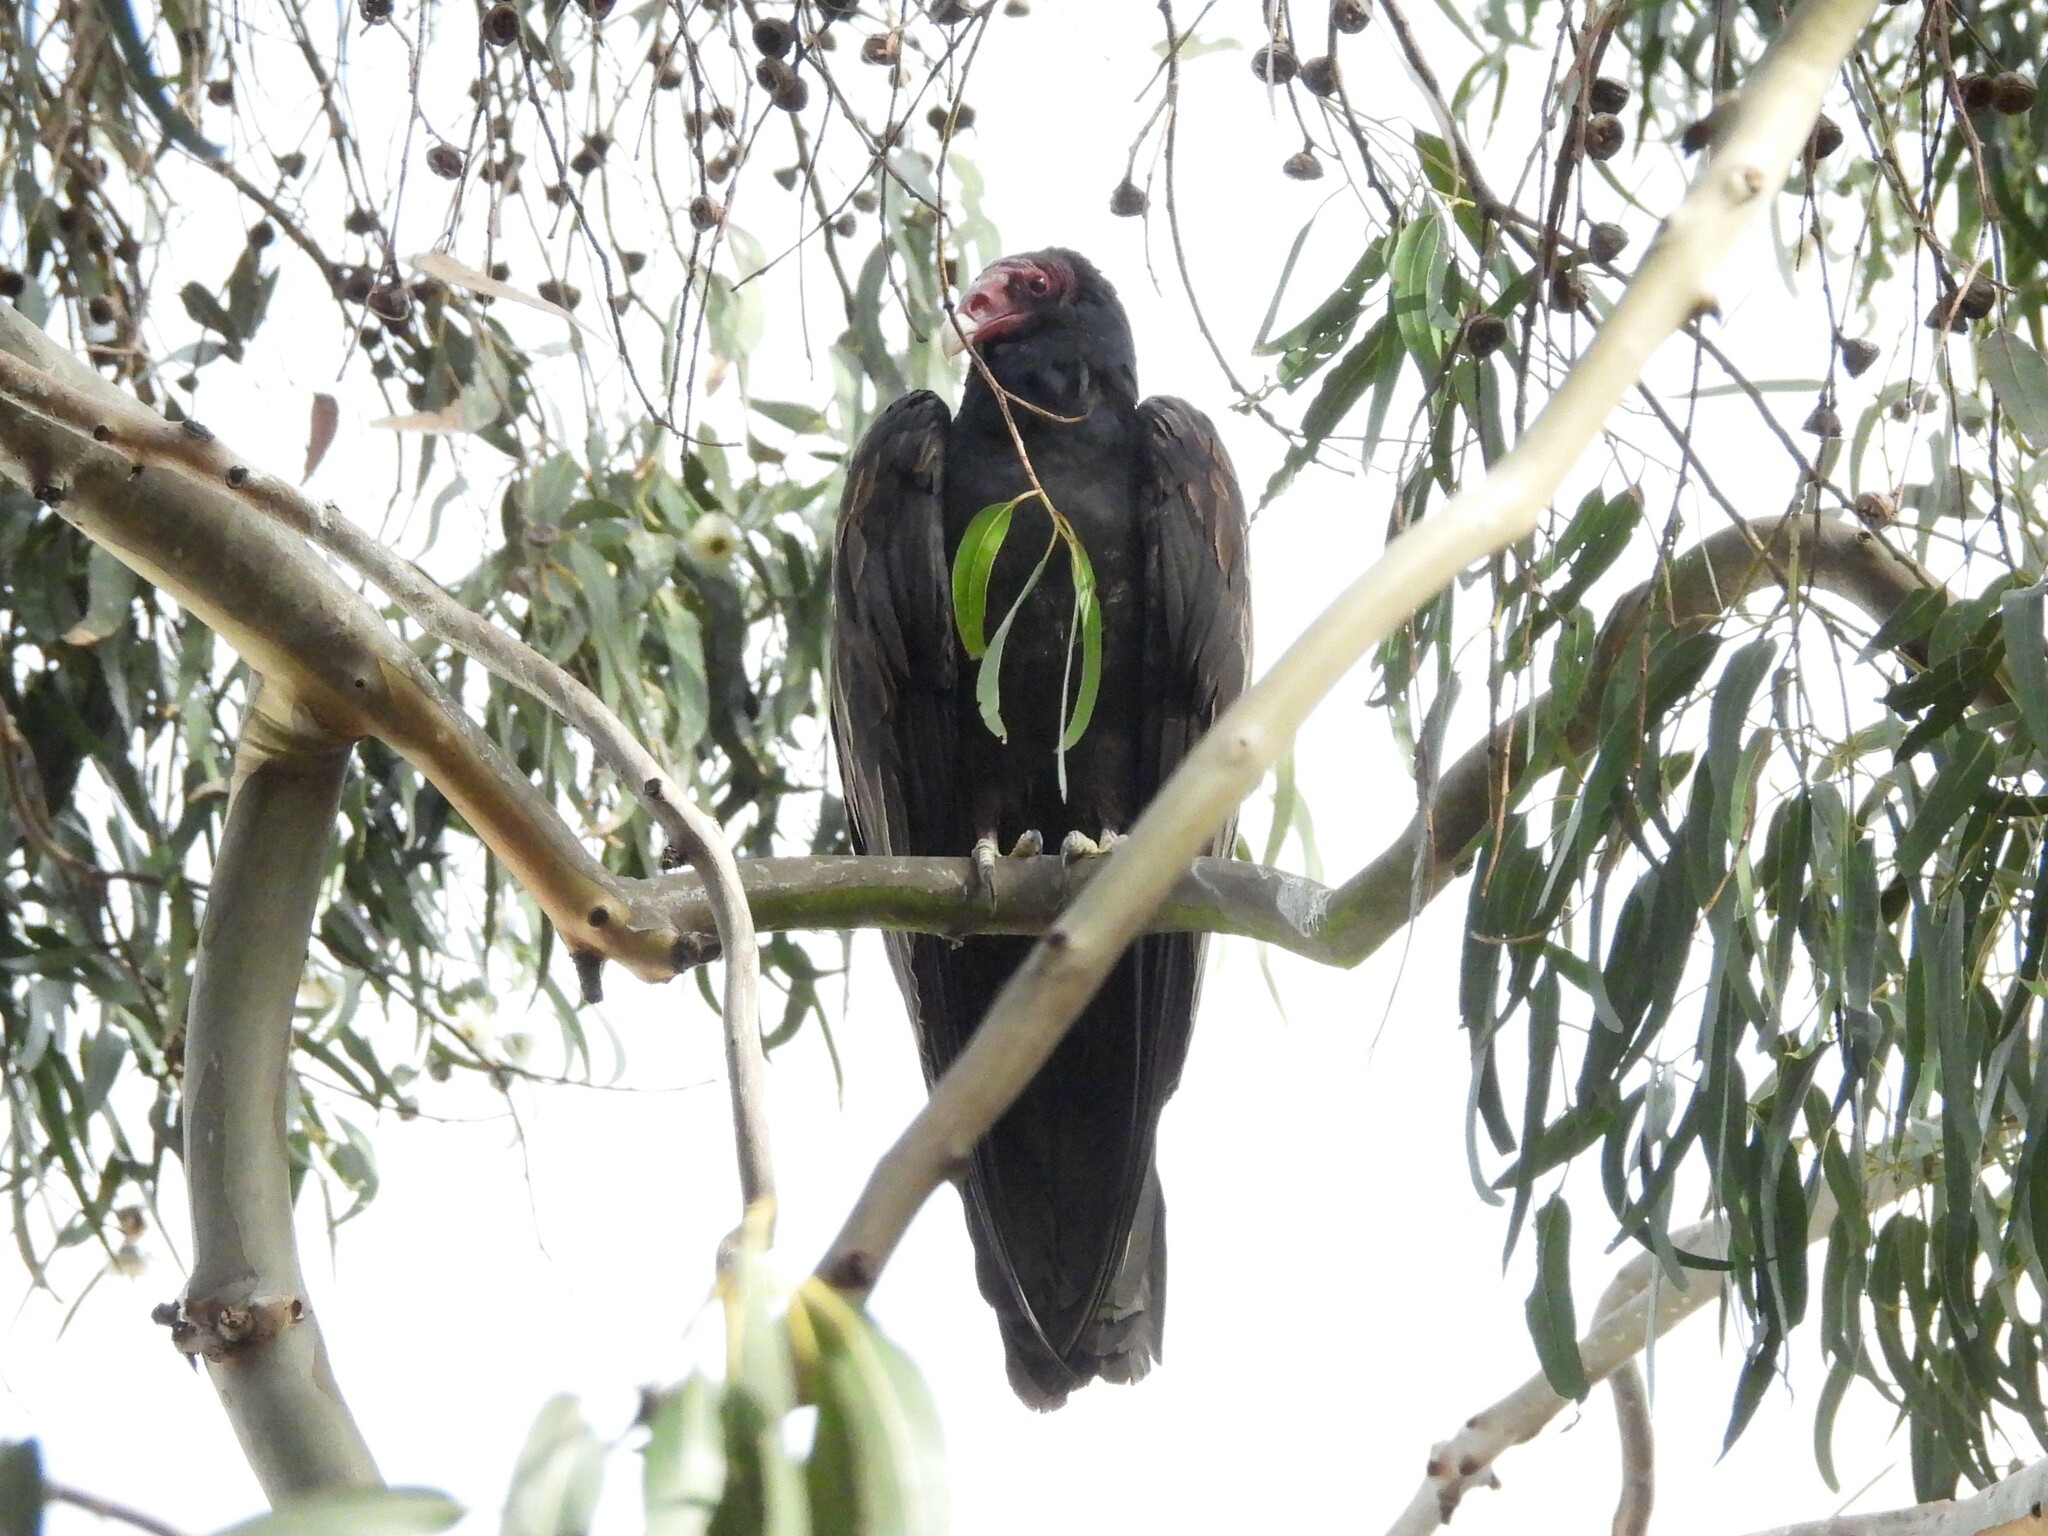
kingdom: Animalia
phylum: Chordata
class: Aves
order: Accipitriformes
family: Cathartidae
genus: Cathartes
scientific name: Cathartes aura
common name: Turkey vulture
